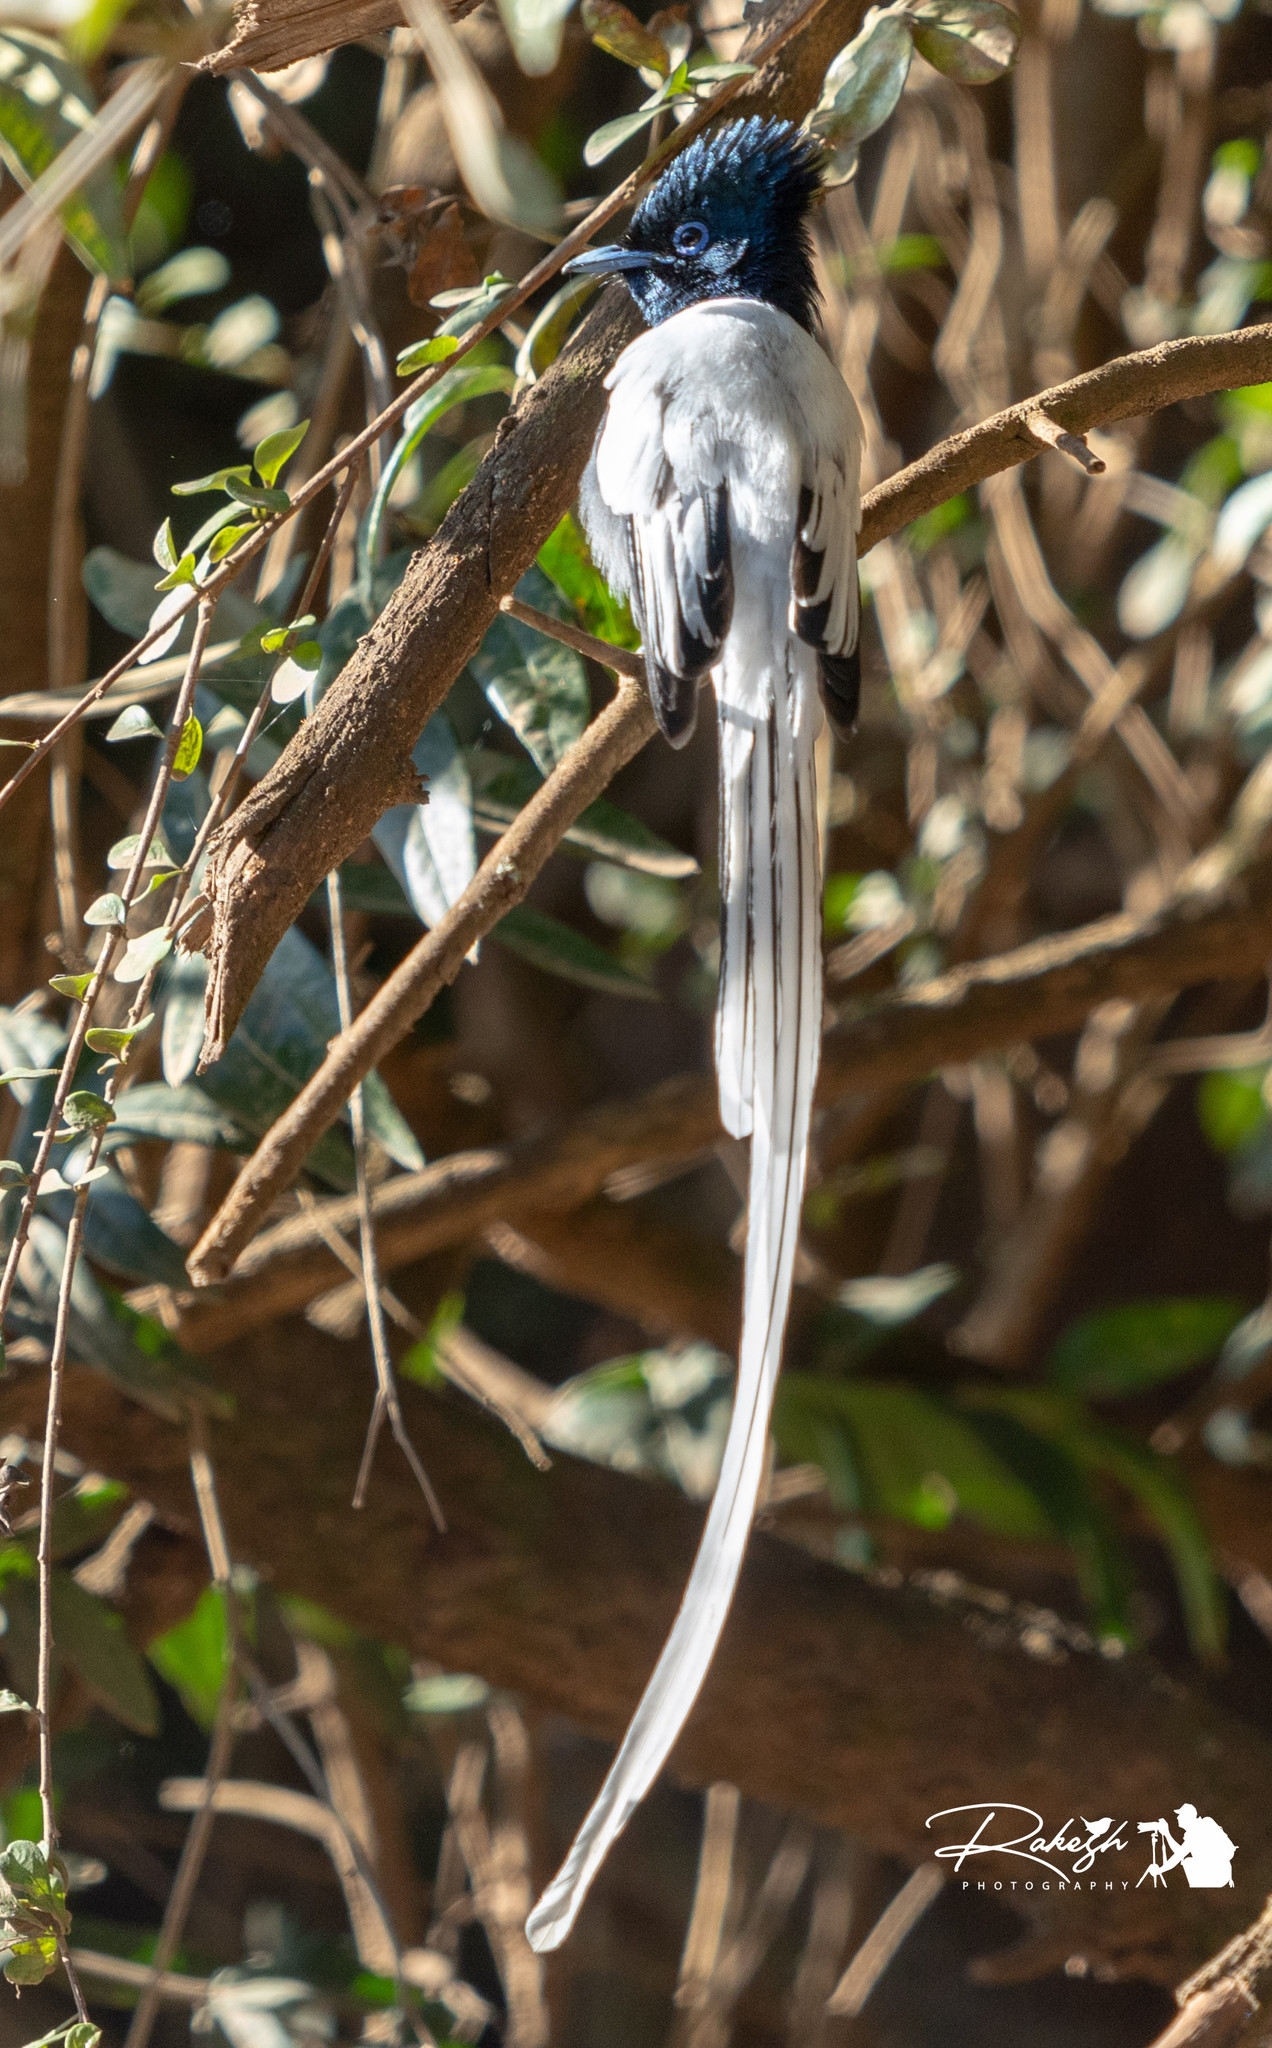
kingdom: Animalia
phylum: Chordata
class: Aves
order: Passeriformes
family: Monarchidae
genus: Terpsiphone
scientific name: Terpsiphone viridis
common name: African paradise flycatcher
